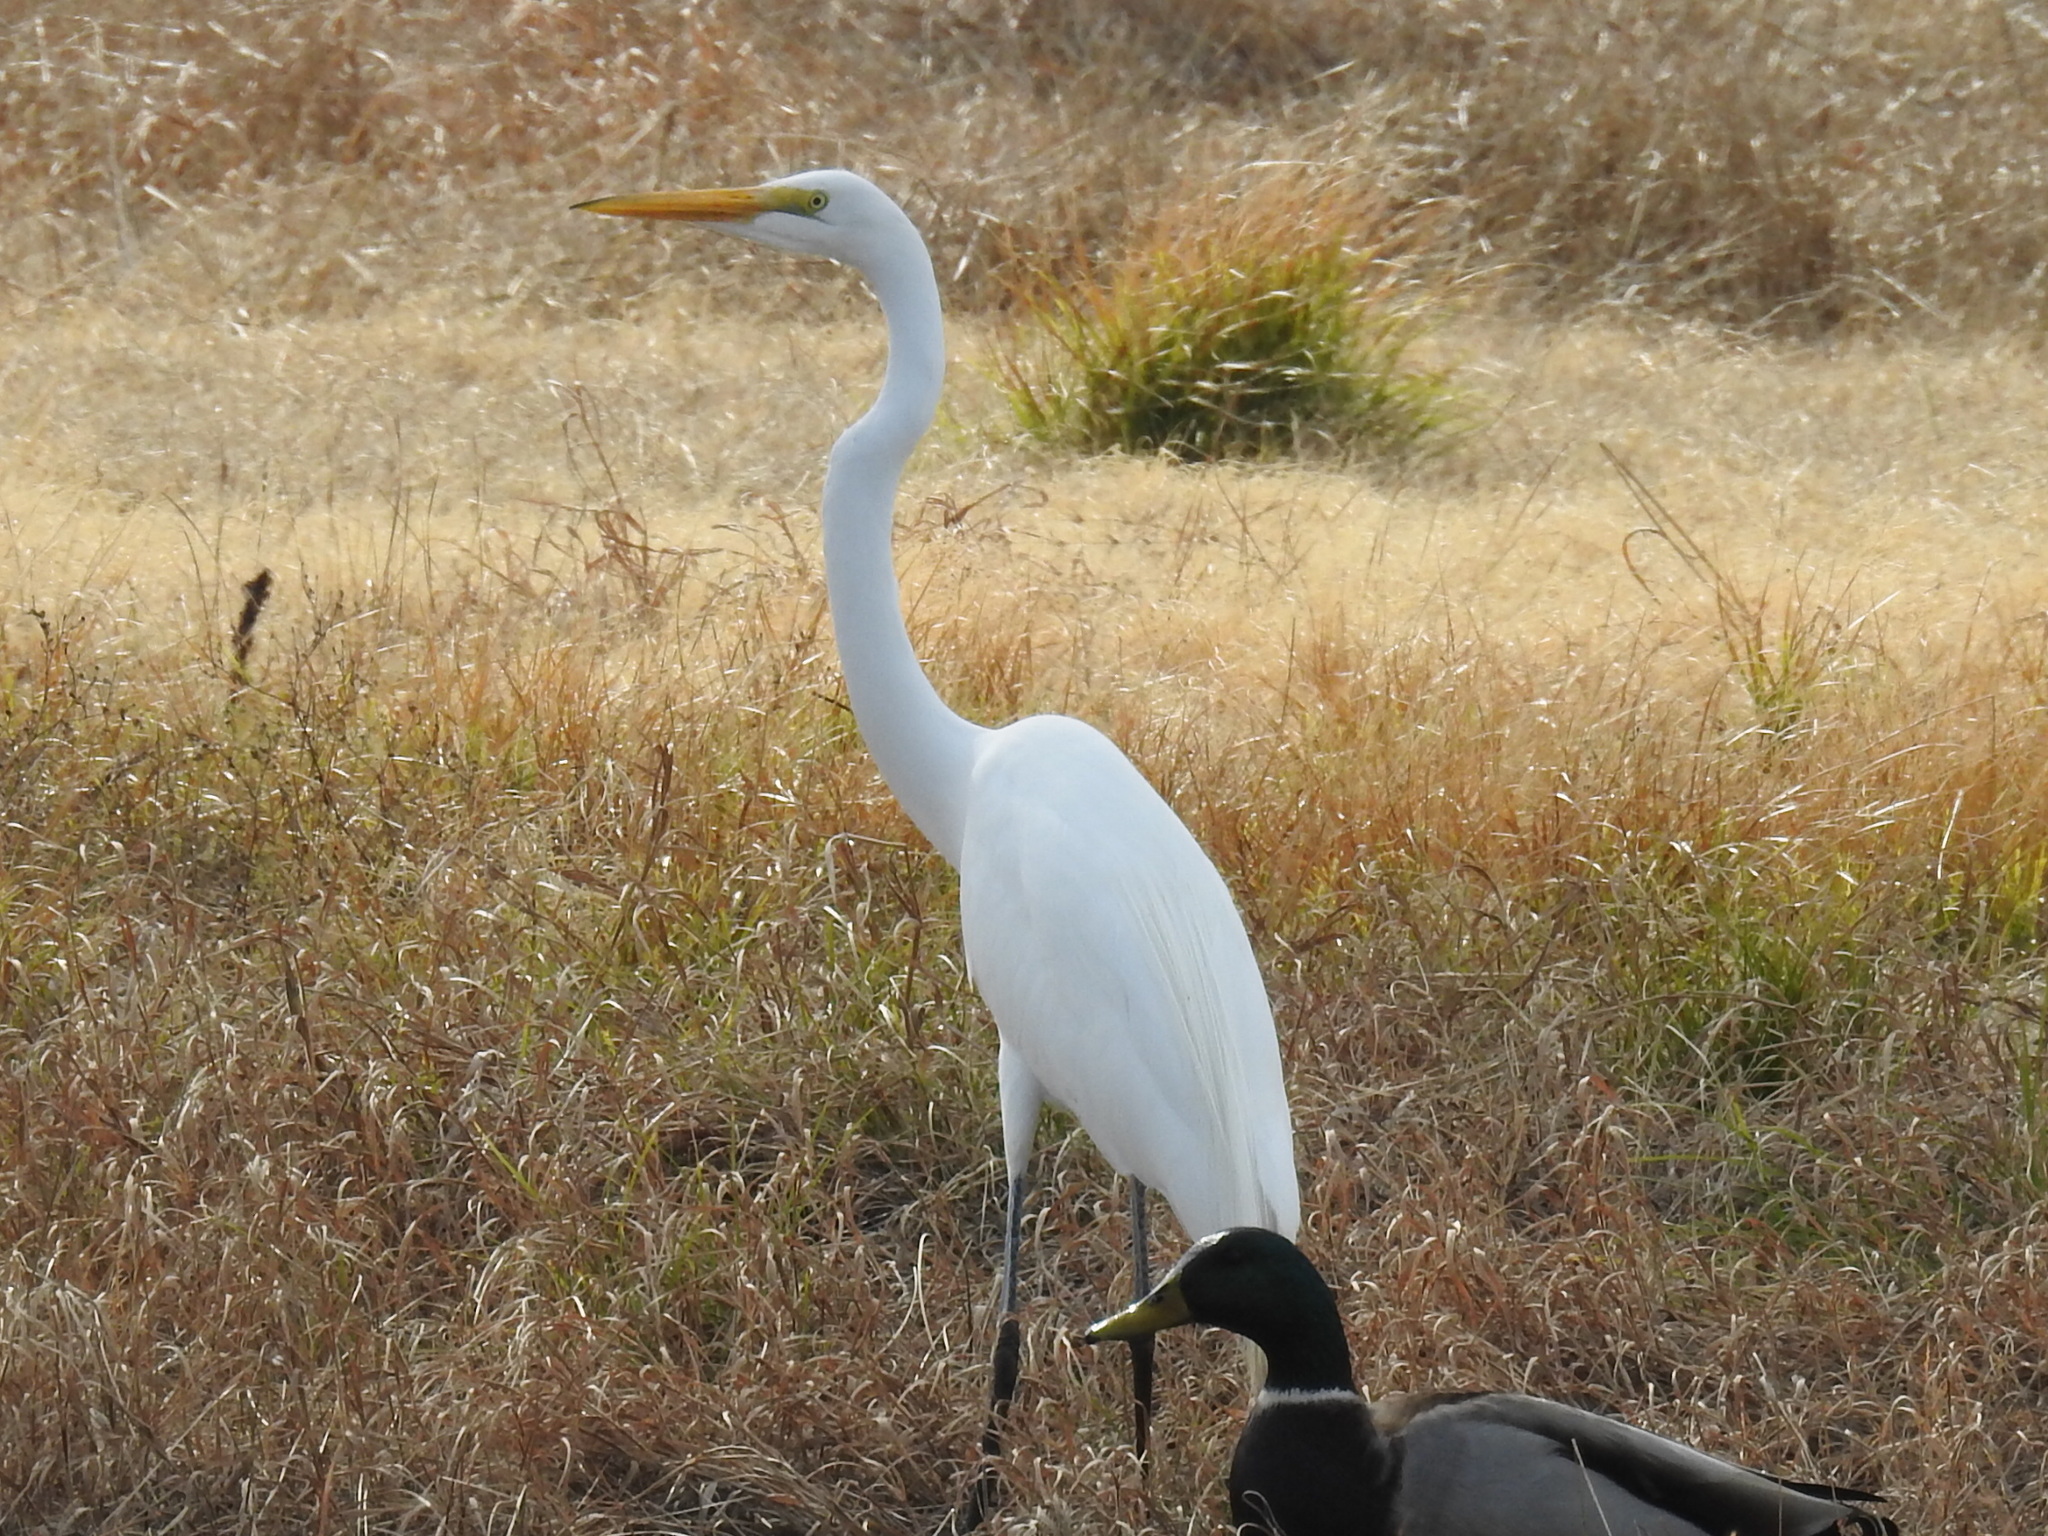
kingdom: Animalia
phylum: Chordata
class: Aves
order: Pelecaniformes
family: Ardeidae
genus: Ardea
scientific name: Ardea alba
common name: Great egret
